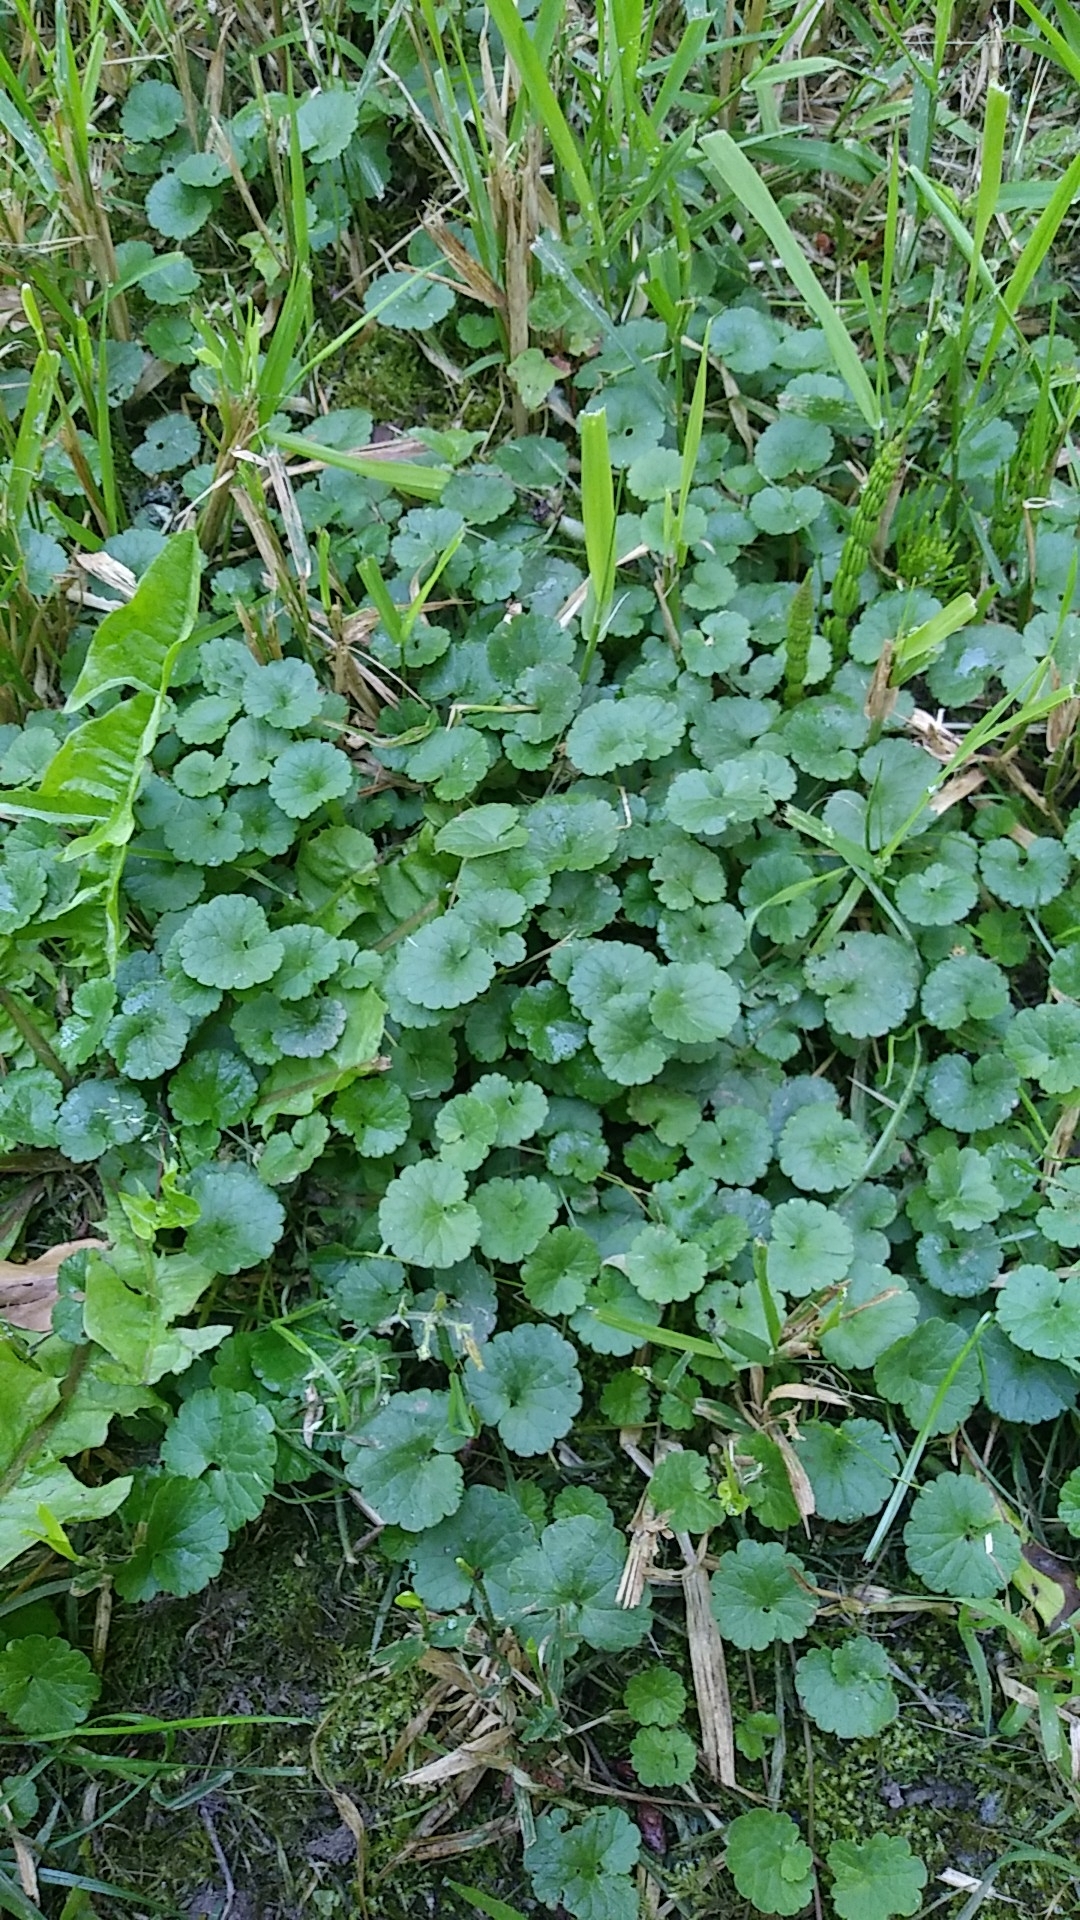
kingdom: Plantae
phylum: Tracheophyta
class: Magnoliopsida
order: Lamiales
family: Lamiaceae
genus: Glechoma
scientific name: Glechoma hederacea
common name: Ground ivy
